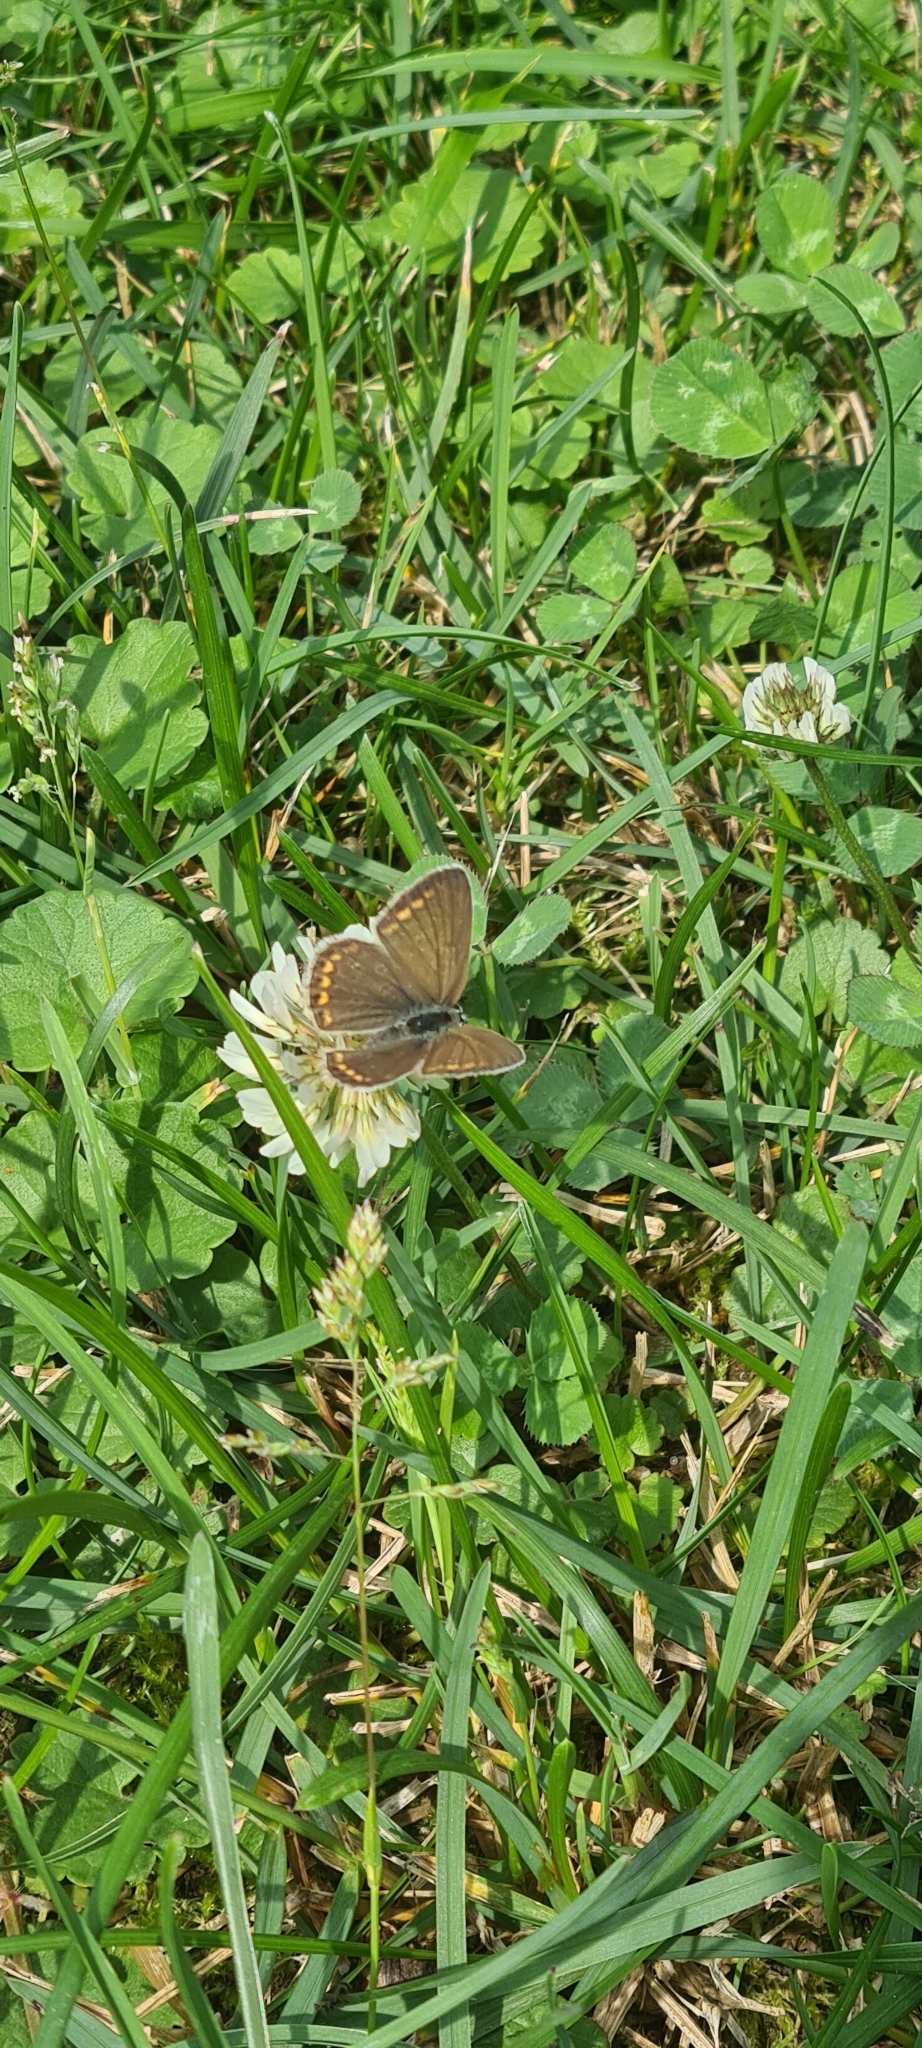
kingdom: Animalia
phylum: Arthropoda
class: Insecta
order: Lepidoptera
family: Lycaenidae
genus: Polyommatus
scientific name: Polyommatus icarus
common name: Common blue
